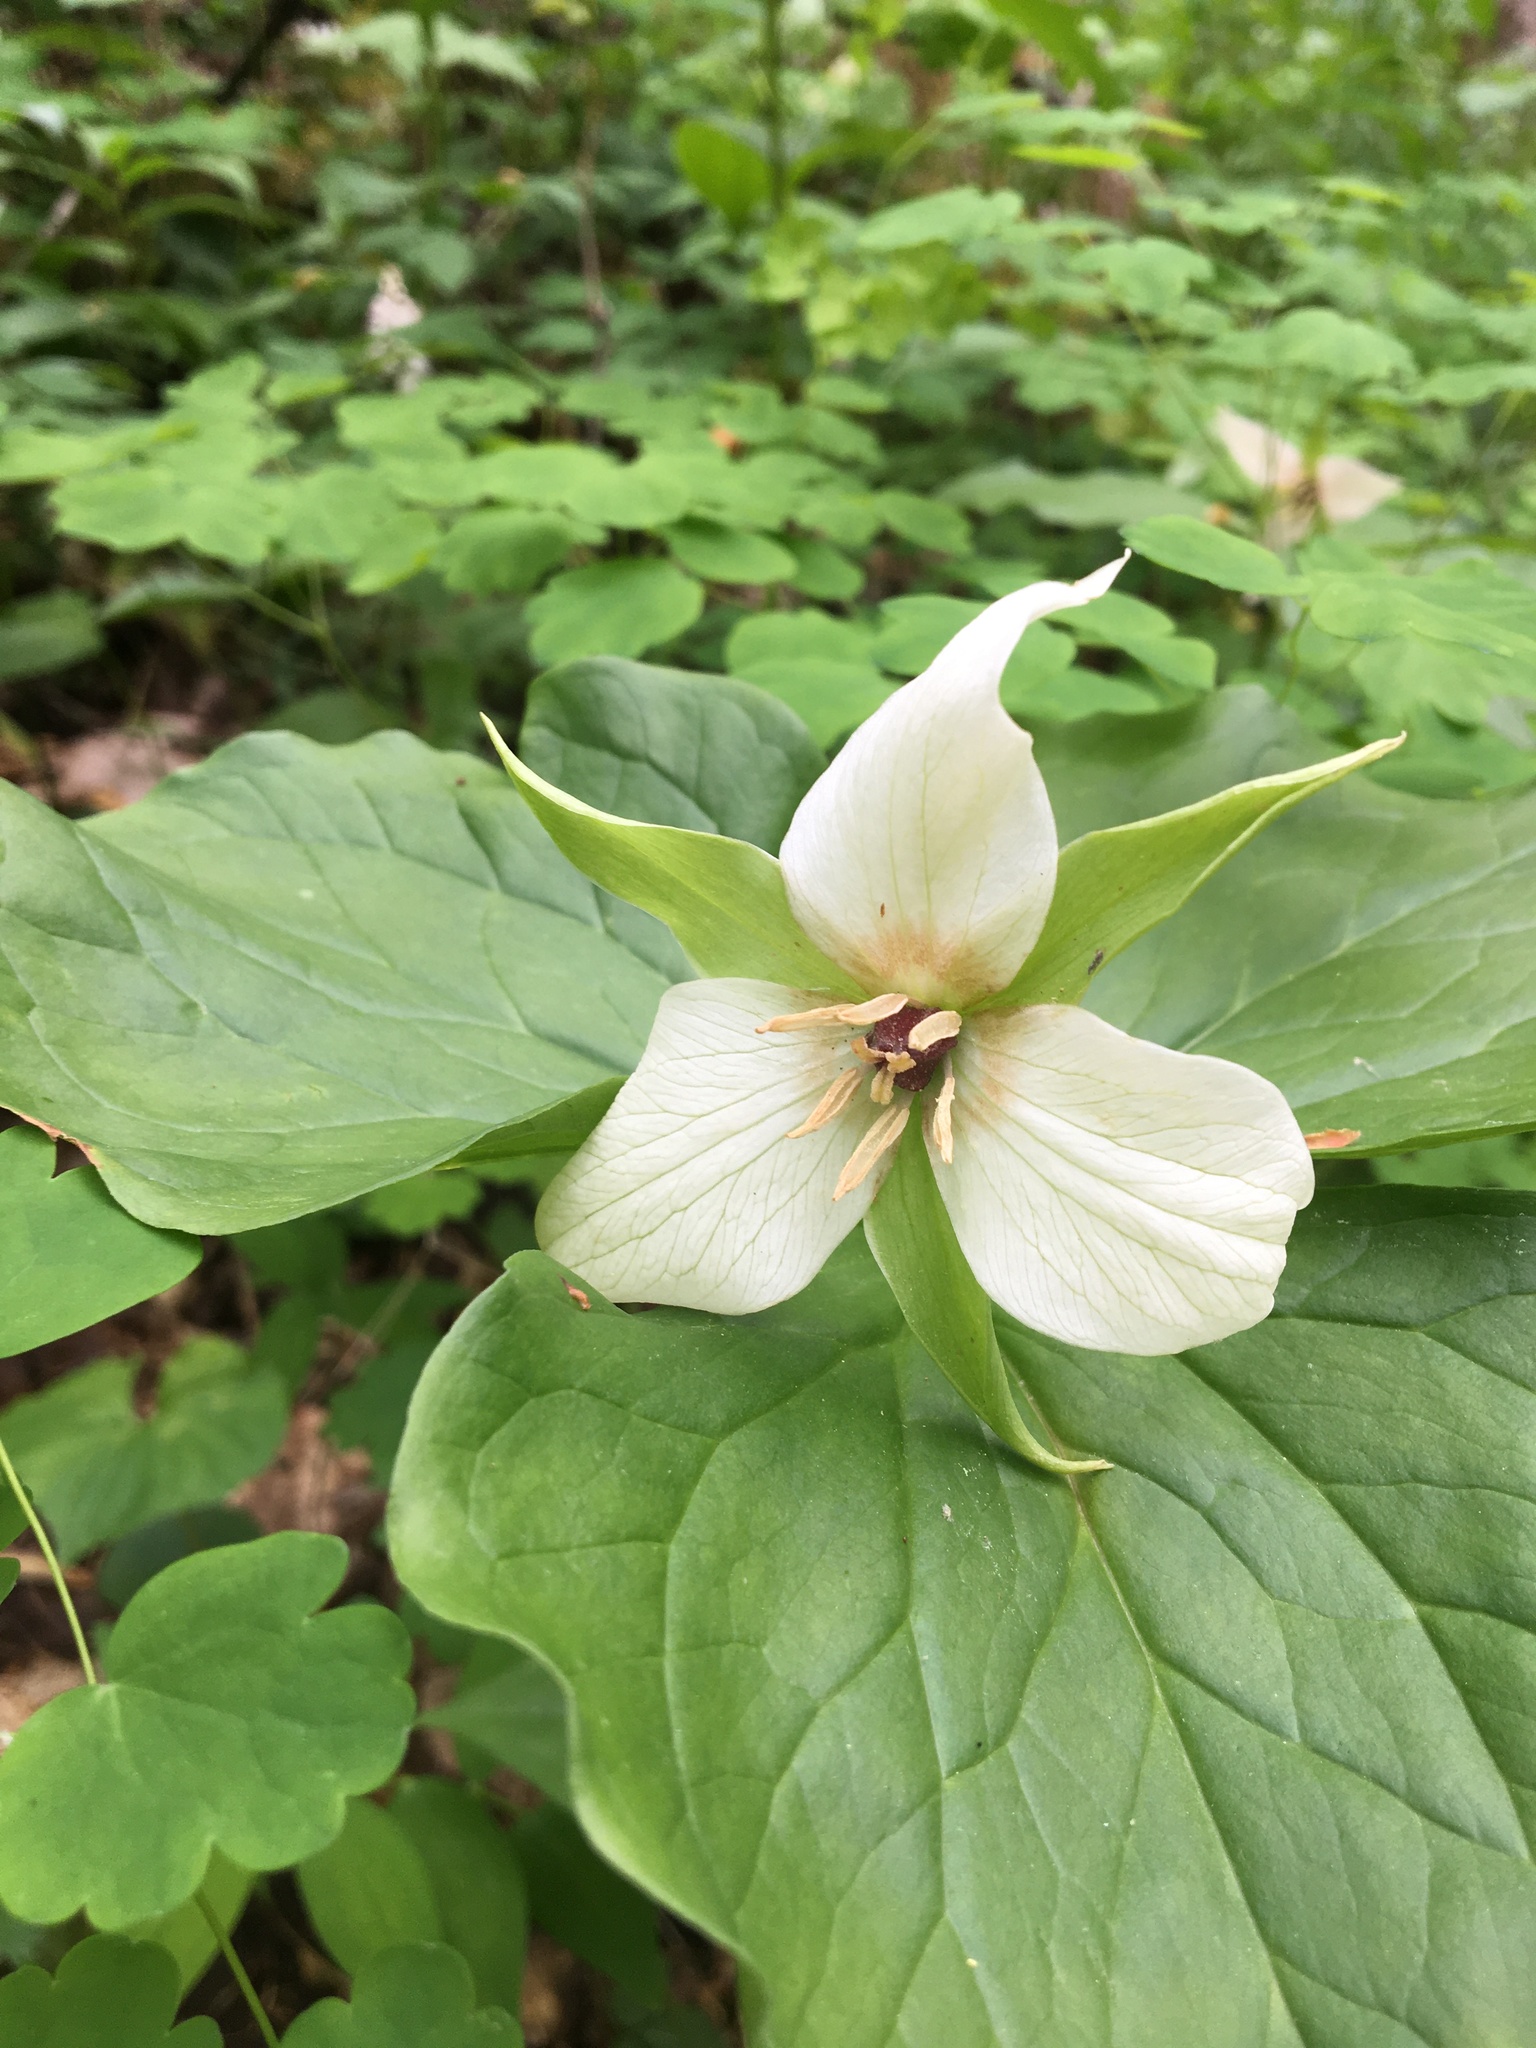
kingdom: Plantae
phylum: Tracheophyta
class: Liliopsida
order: Liliales
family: Melanthiaceae
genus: Trillium
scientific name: Trillium simile
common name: Confusing trillium
